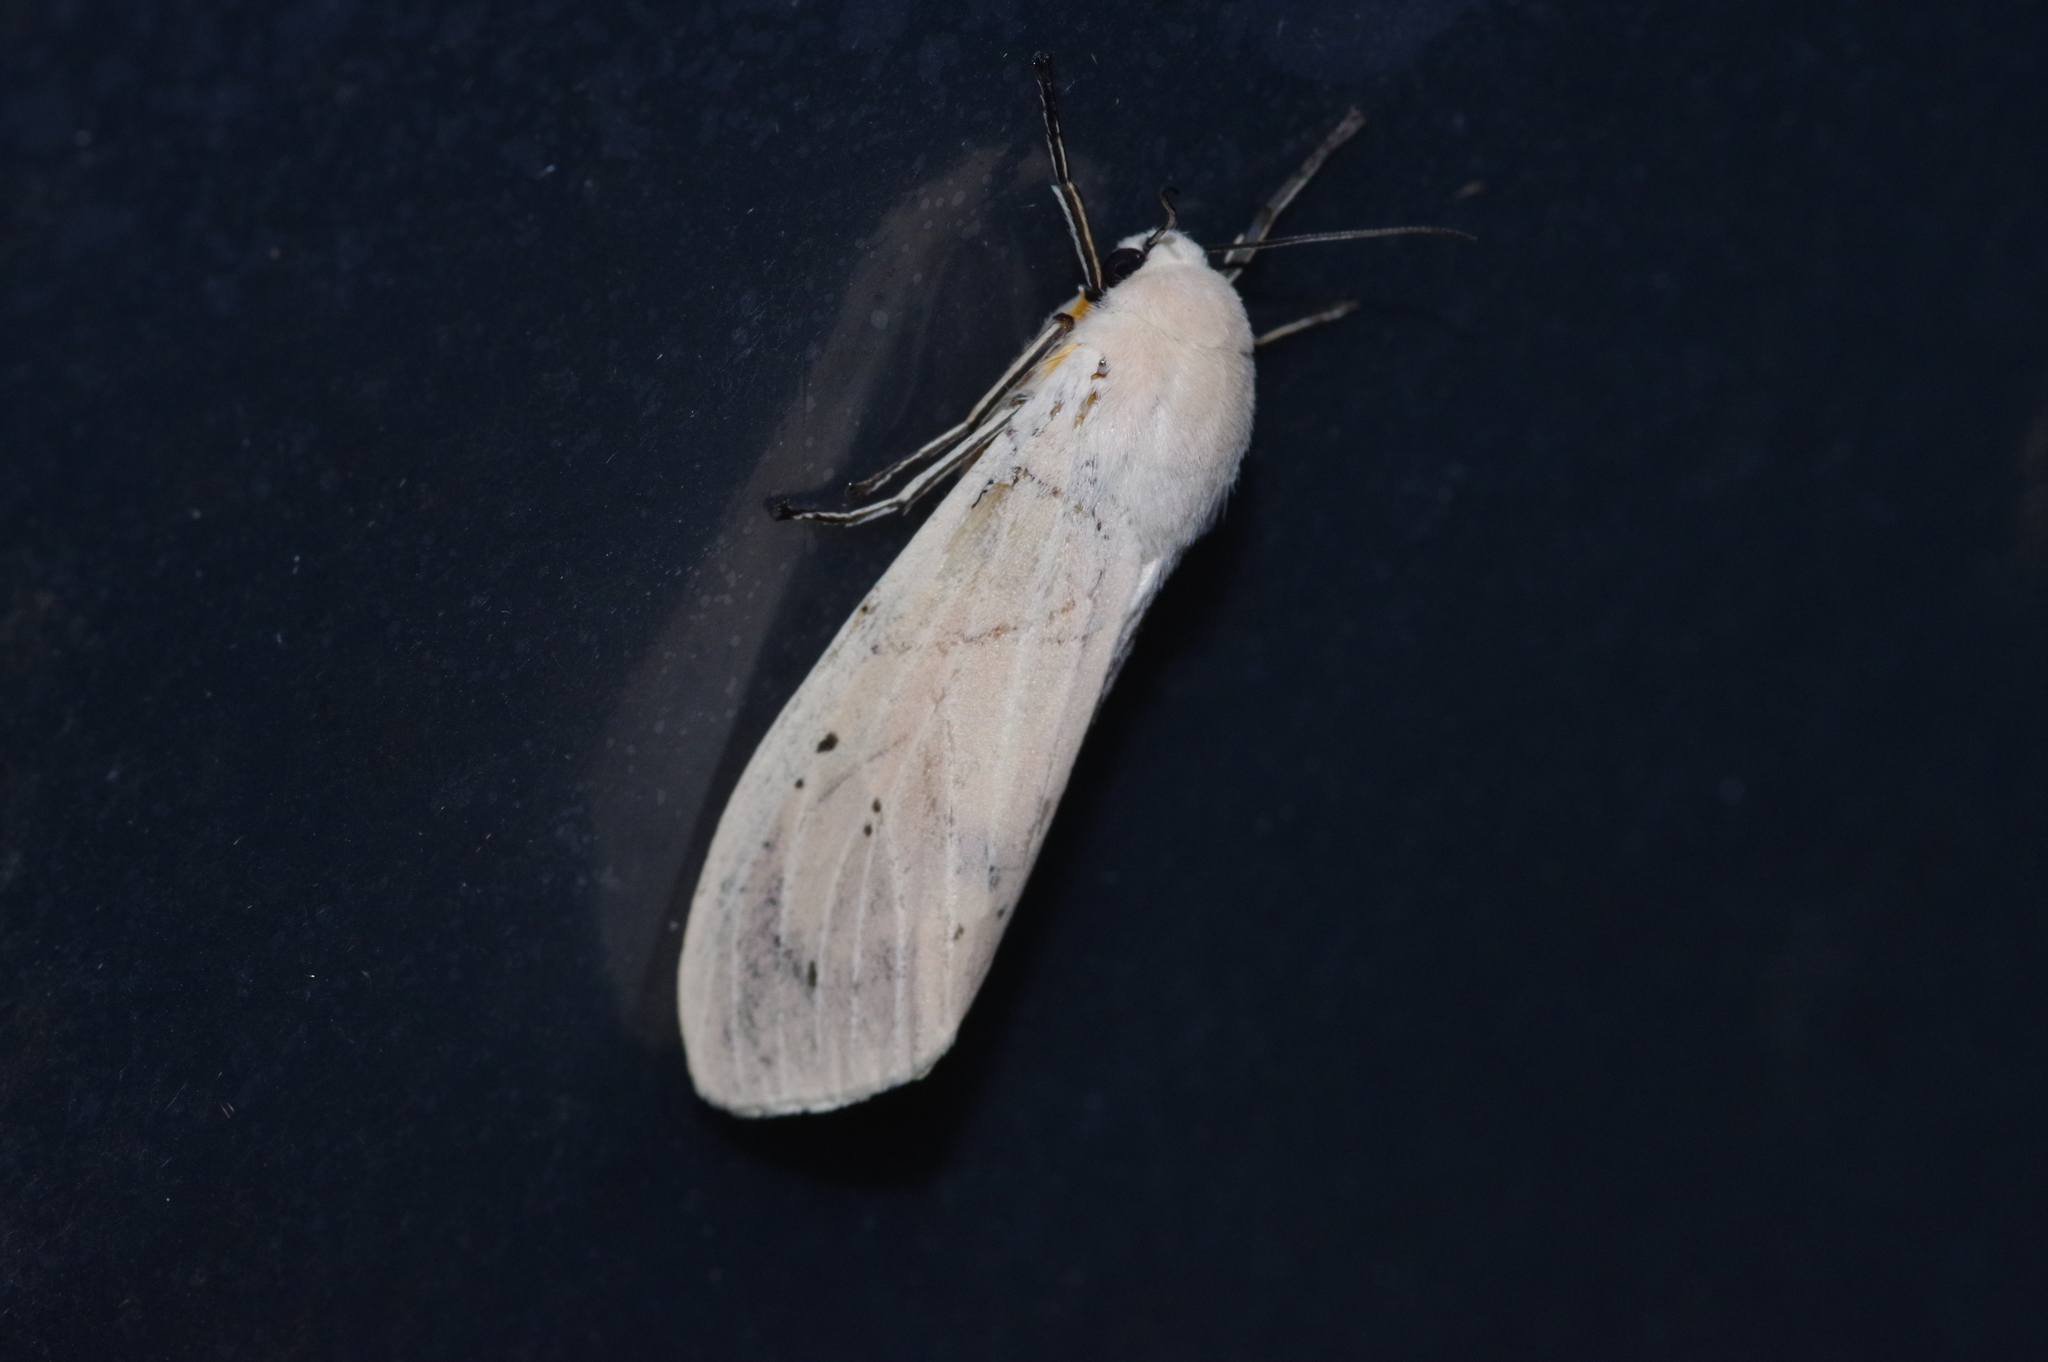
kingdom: Animalia
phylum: Arthropoda
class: Insecta
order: Lepidoptera
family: Erebidae
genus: Creatonotos
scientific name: Creatonotos transiens
